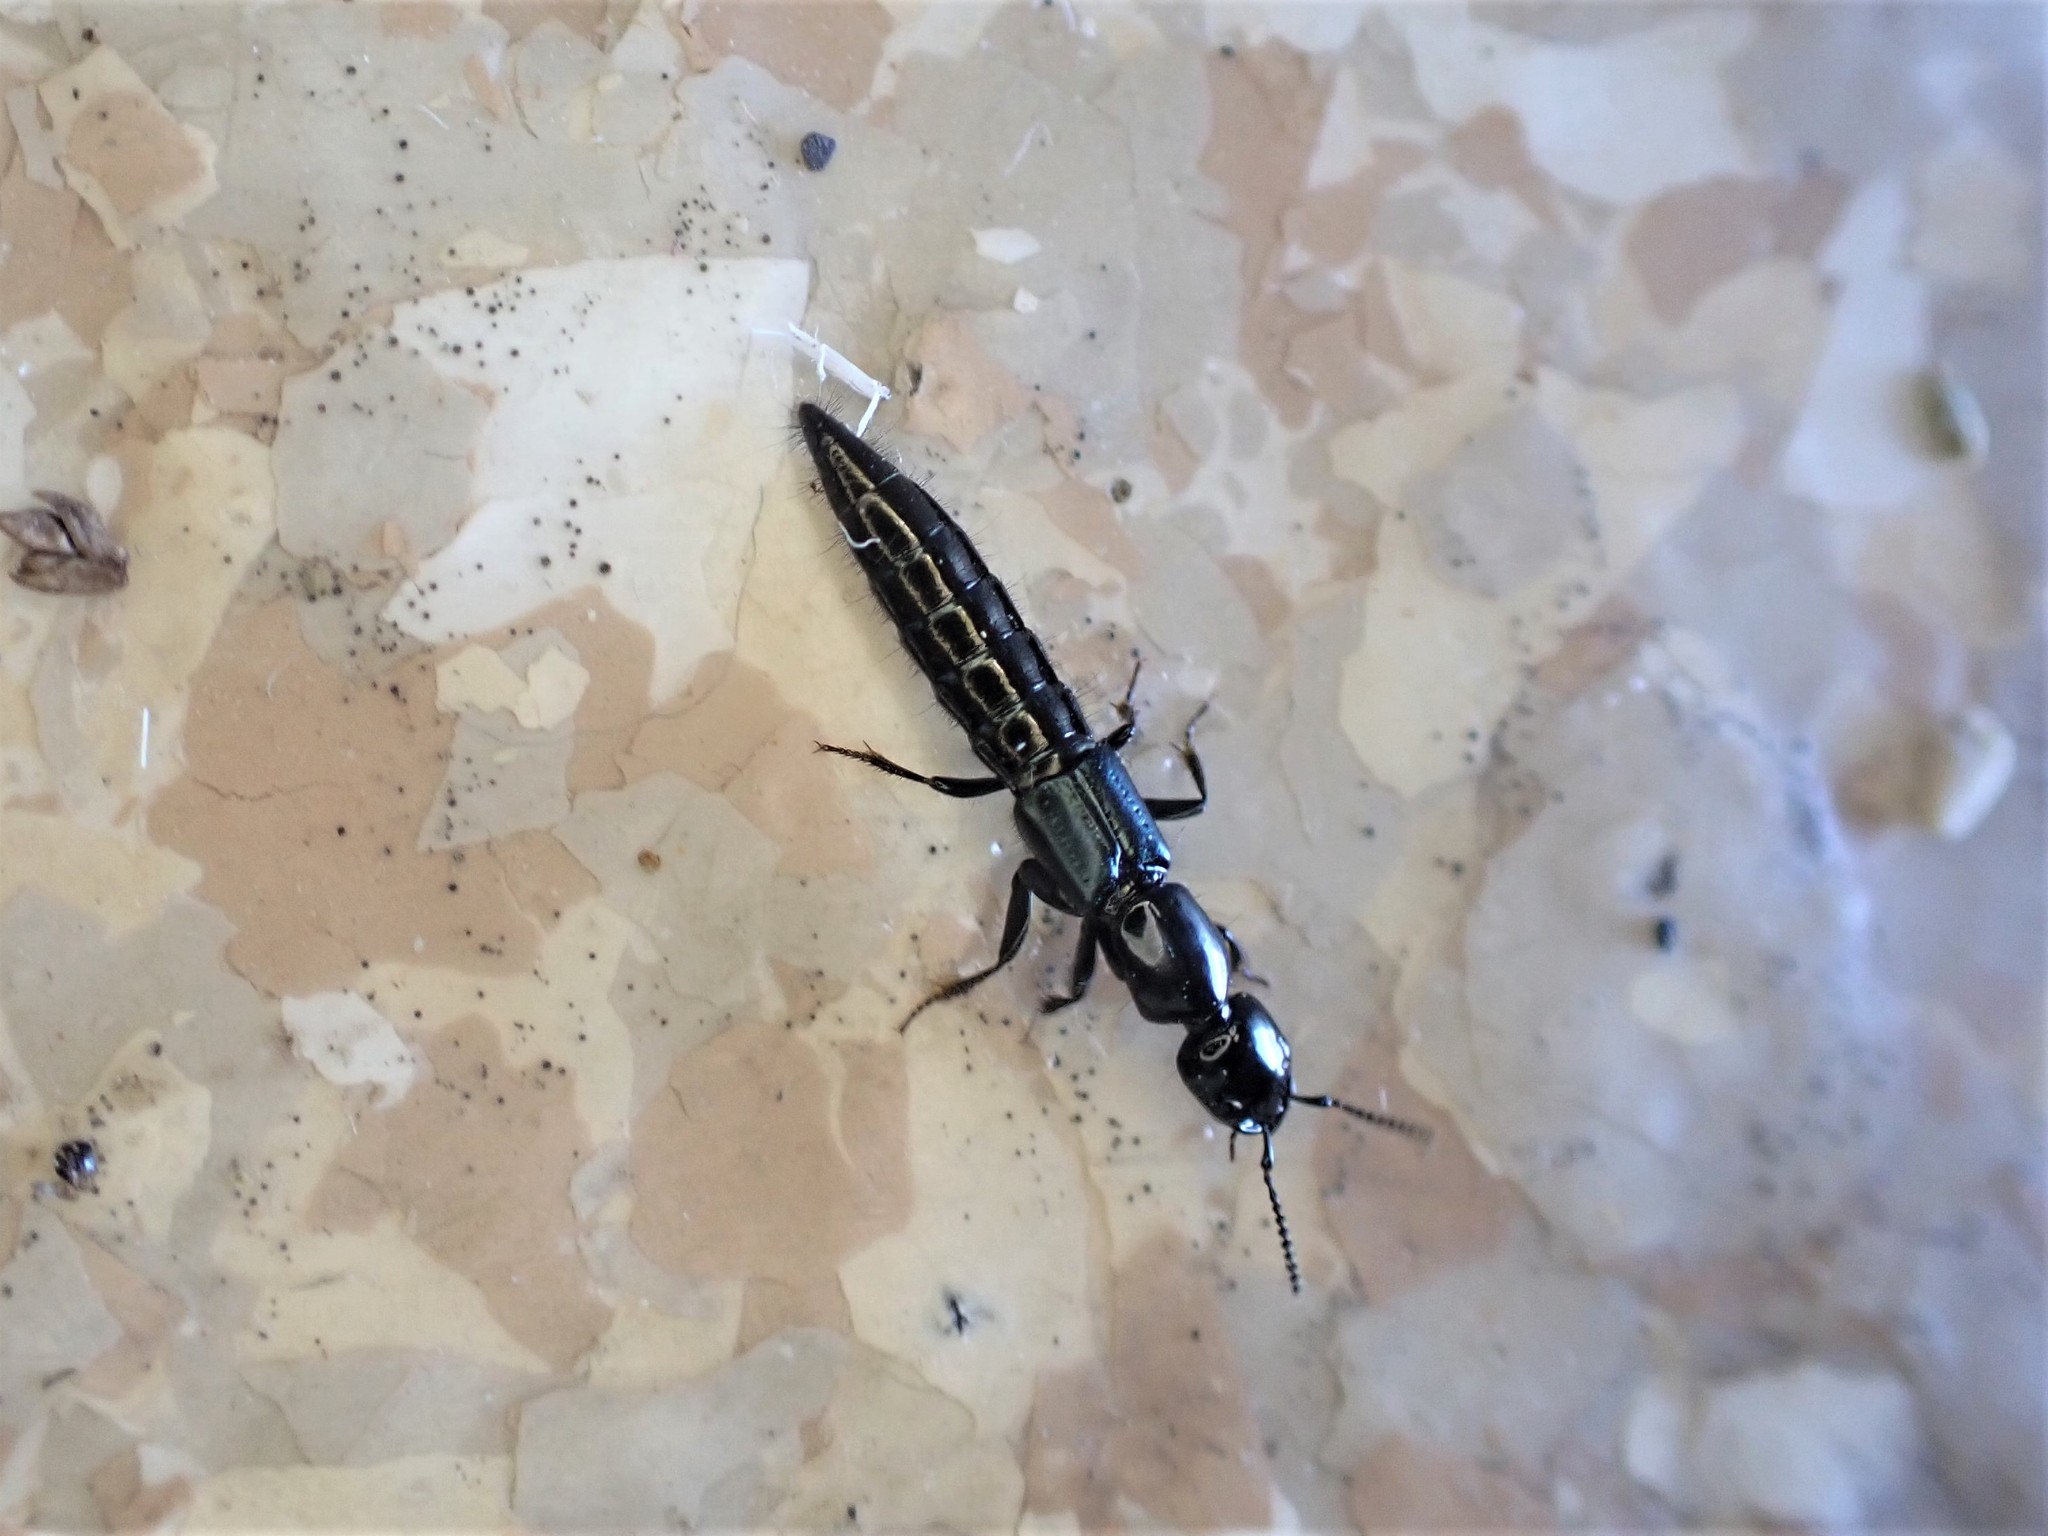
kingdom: Animalia
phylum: Arthropoda
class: Insecta
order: Coleoptera
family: Staphylinidae
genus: Thyreocephalus
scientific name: Thyreocephalus orthodoxus
